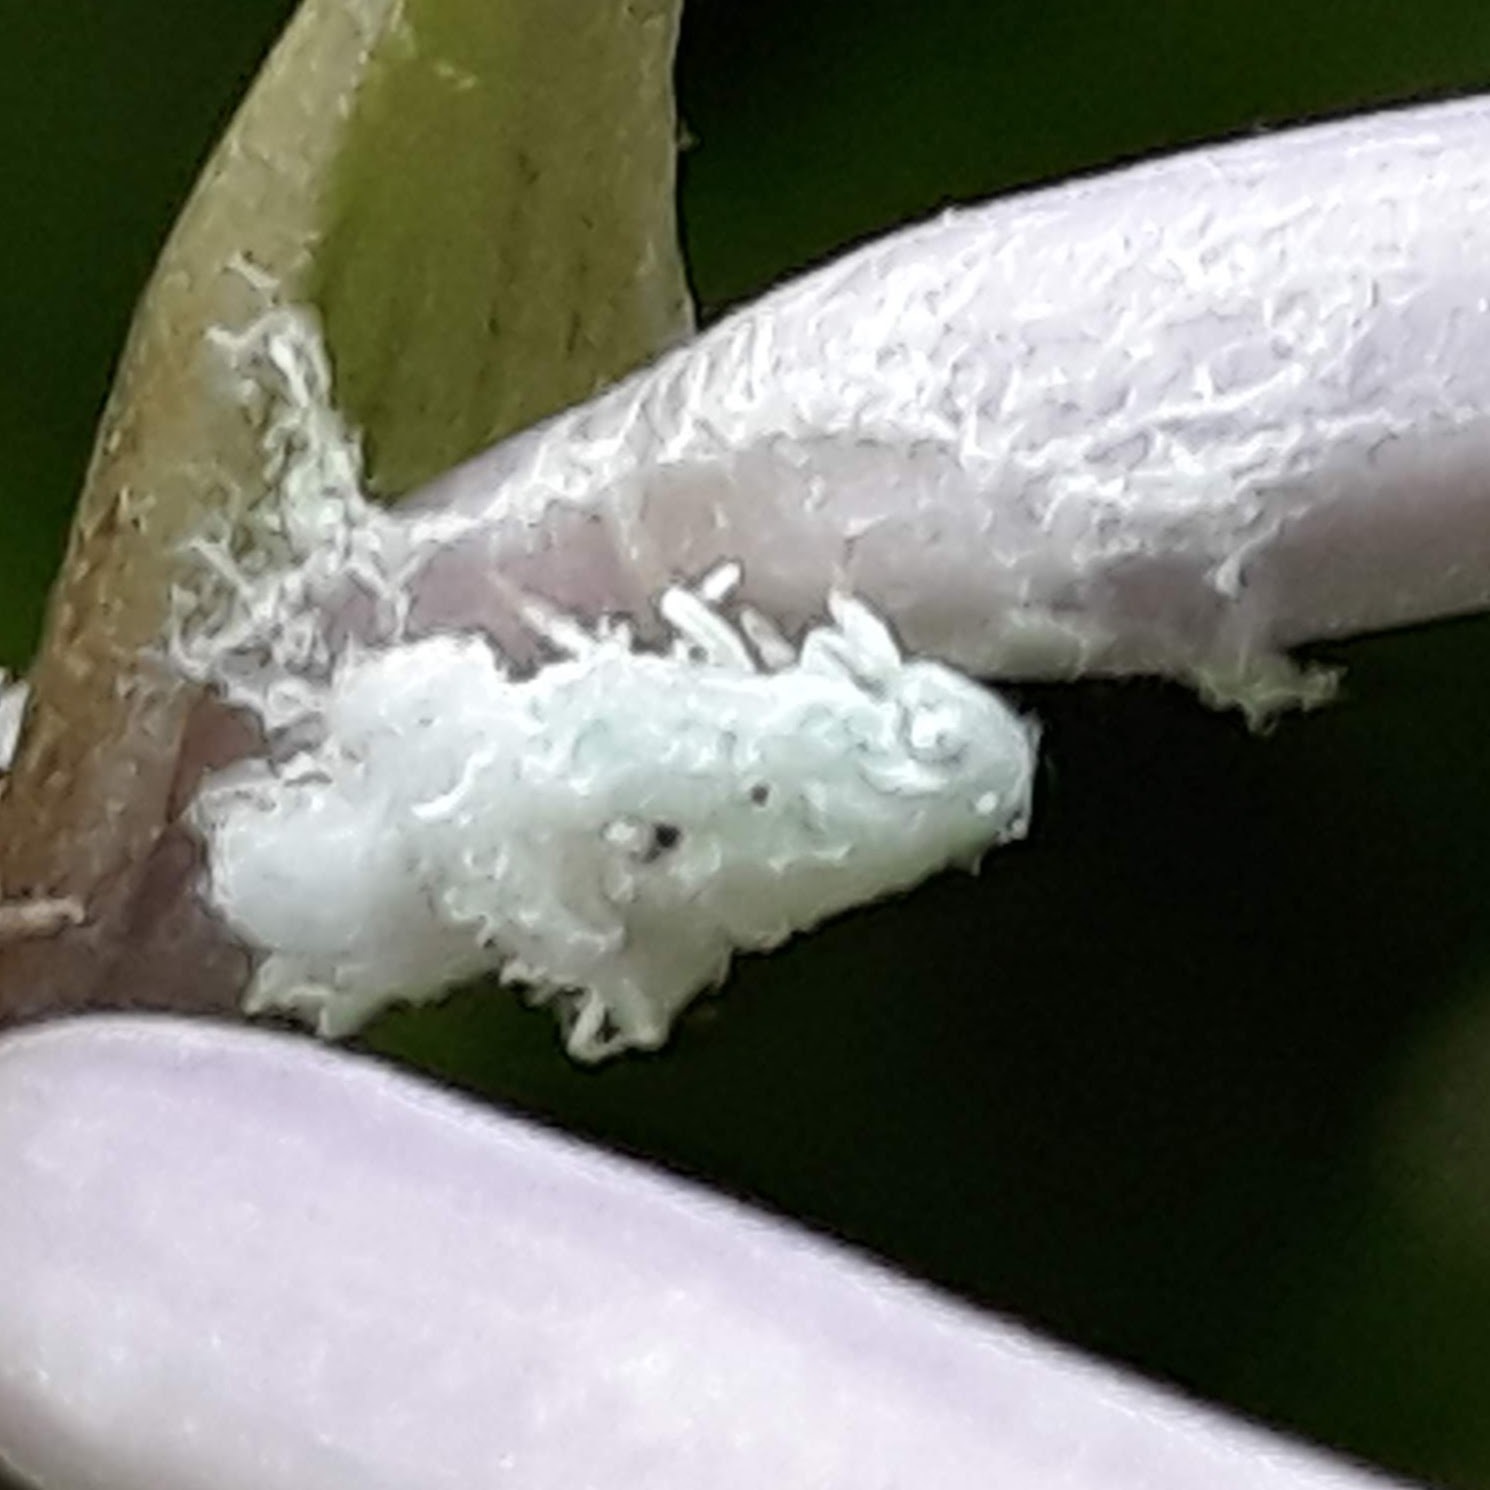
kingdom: Animalia
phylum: Arthropoda
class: Insecta
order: Hemiptera
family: Flatidae
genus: Flatormenis
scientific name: Flatormenis proxima
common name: Northern flatid planthopper
